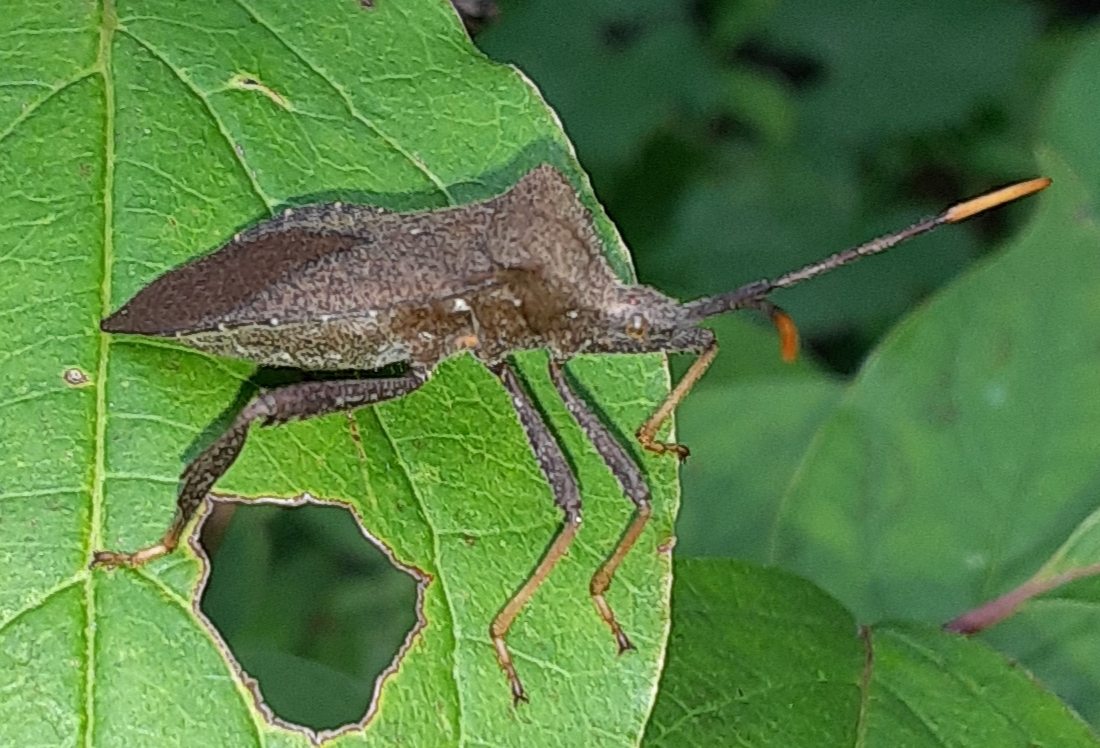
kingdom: Animalia
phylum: Arthropoda
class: Insecta
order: Hemiptera
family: Coreidae
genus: Acanthocephala
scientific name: Acanthocephala terminalis
